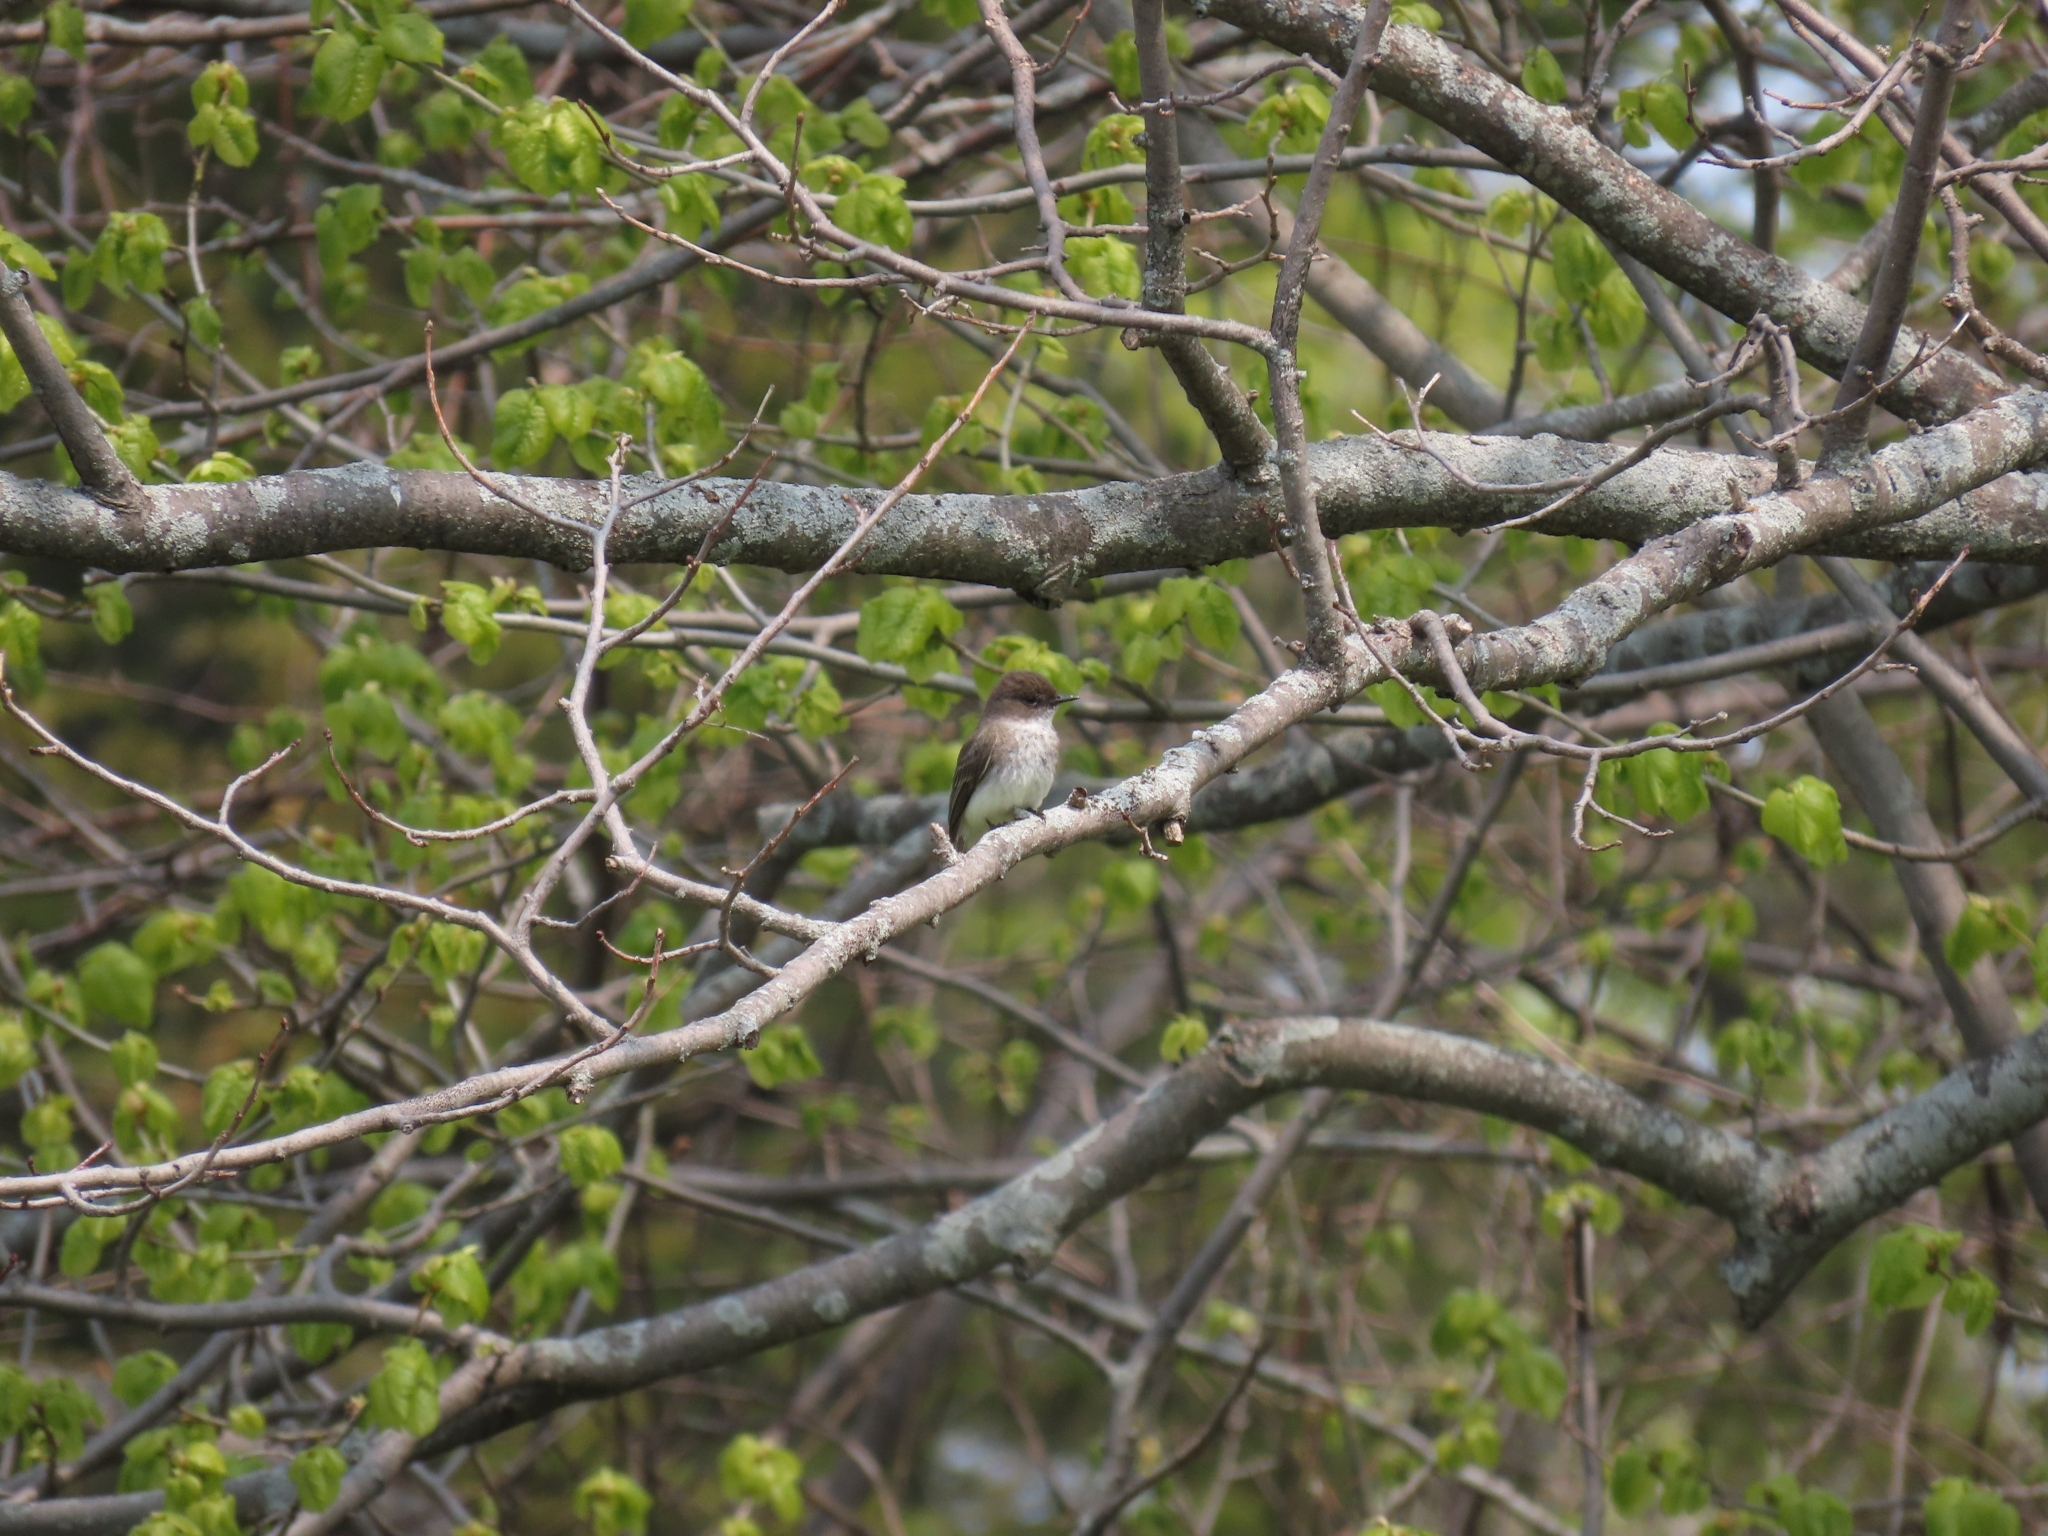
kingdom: Animalia
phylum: Chordata
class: Aves
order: Passeriformes
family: Tyrannidae
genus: Sayornis
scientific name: Sayornis phoebe
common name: Eastern phoebe
